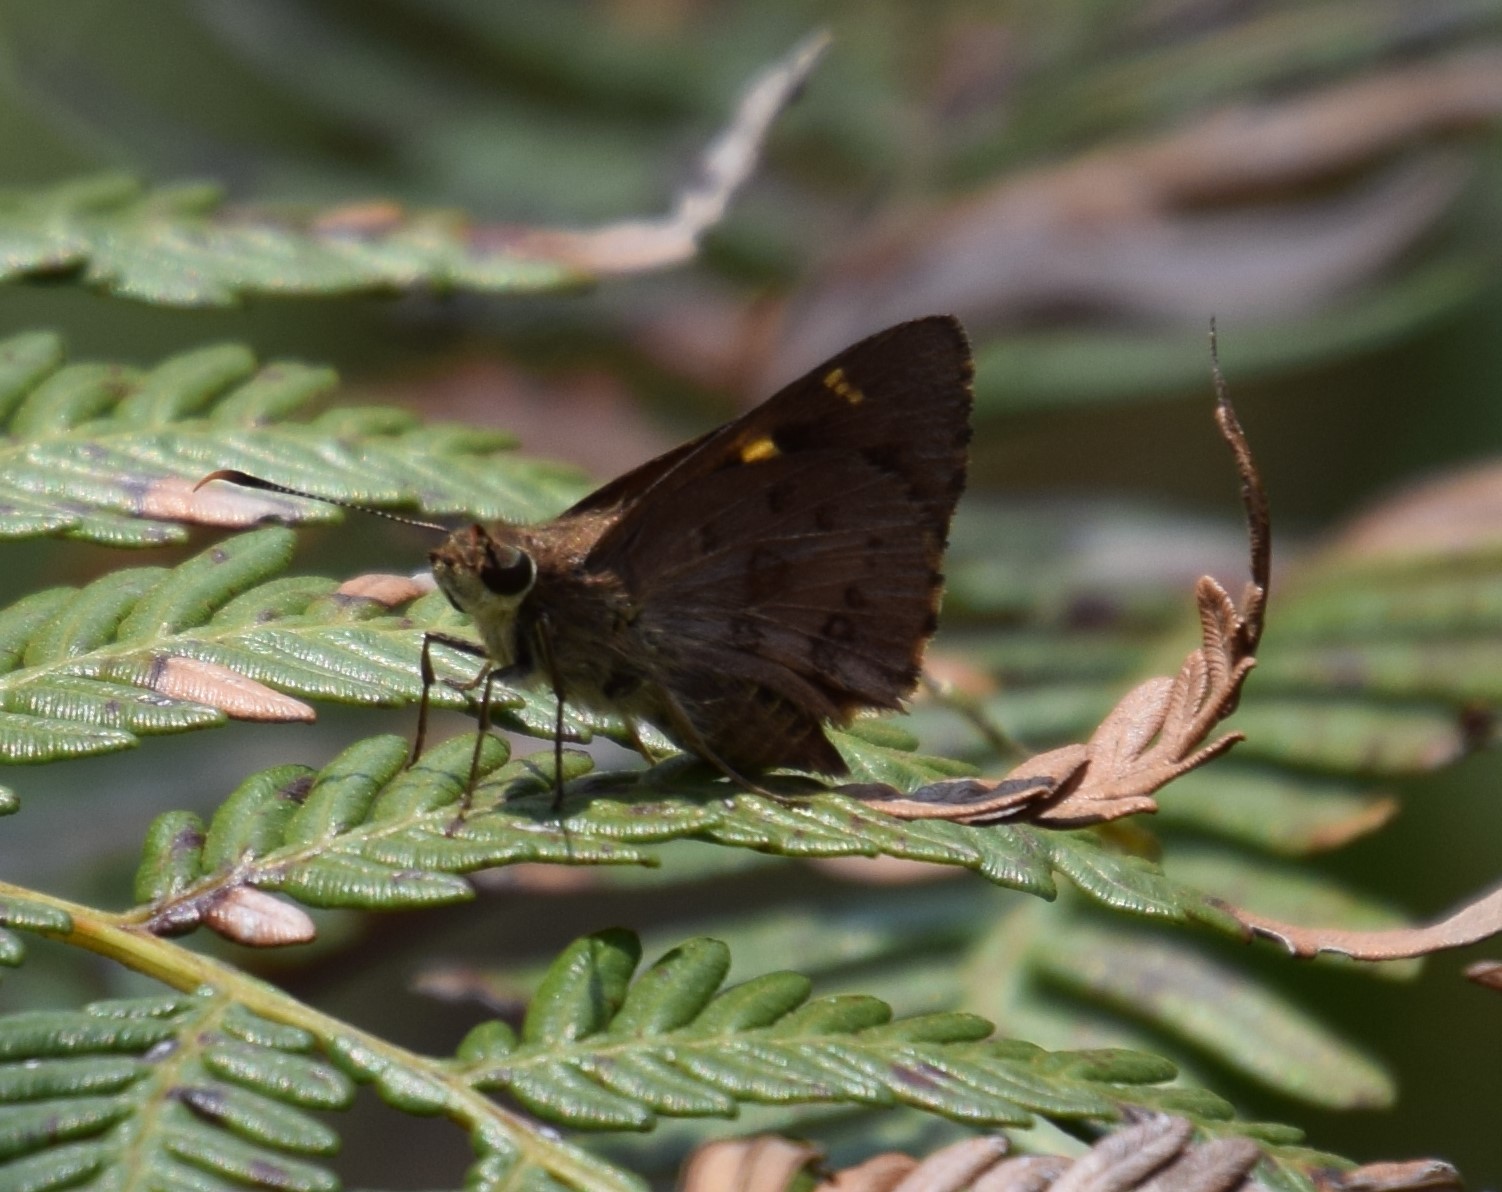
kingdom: Animalia
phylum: Arthropoda
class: Insecta
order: Lepidoptera
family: Hesperiidae
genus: Trapezites
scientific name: Trapezites praxedes
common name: Southern silver ochre
